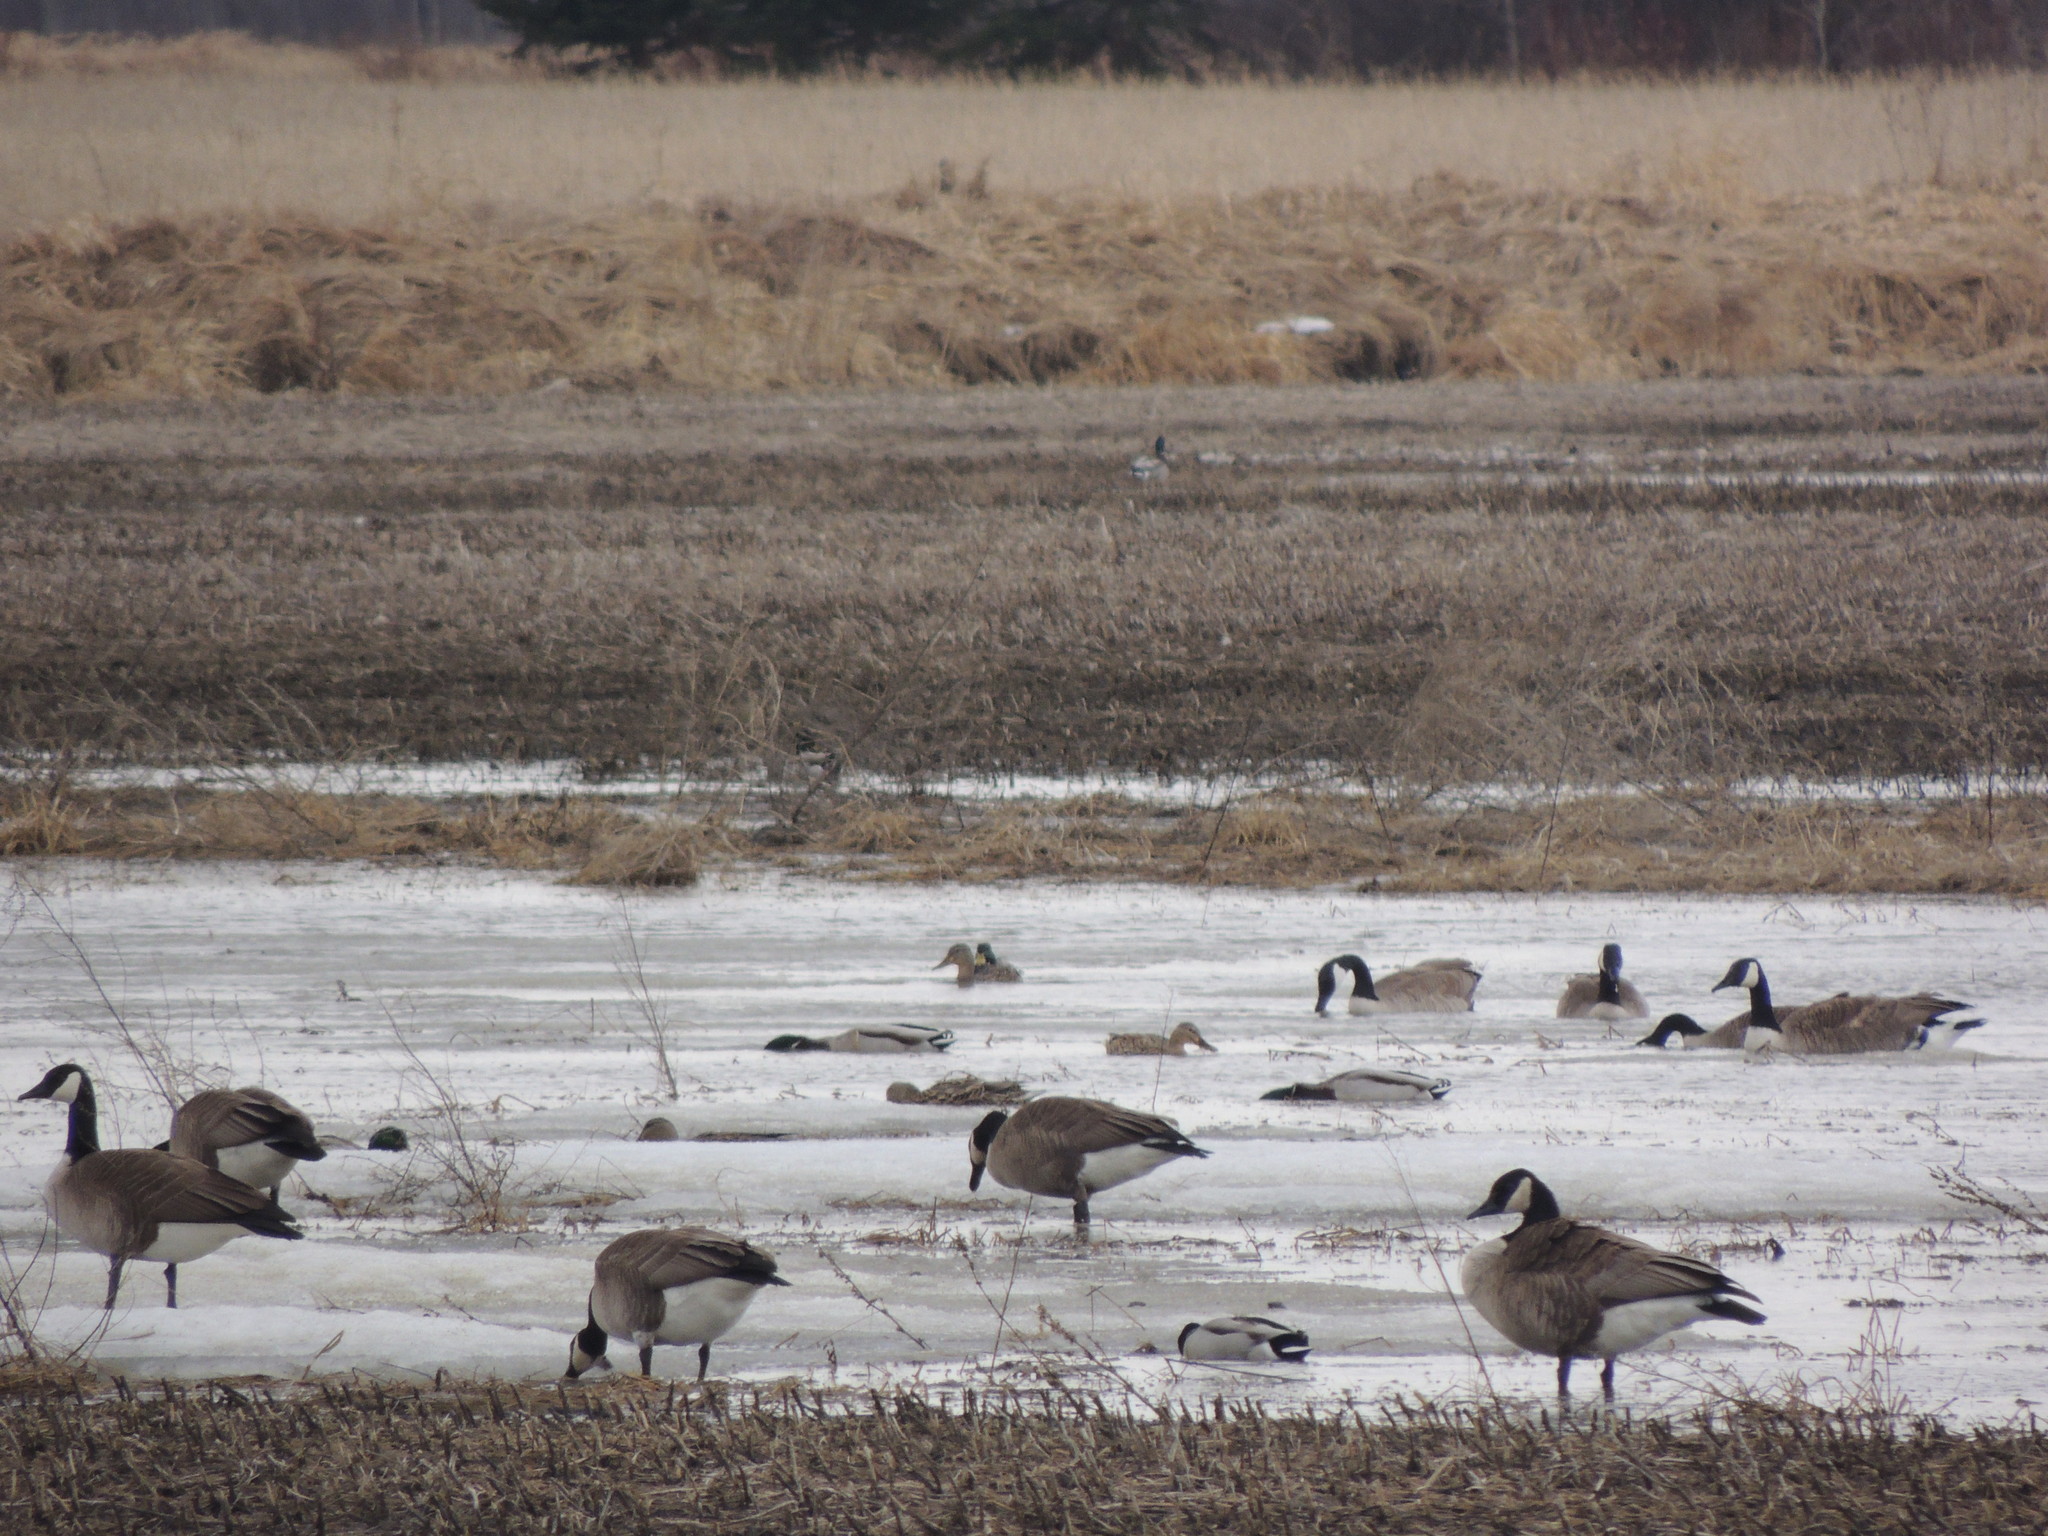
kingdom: Animalia
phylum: Chordata
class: Aves
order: Anseriformes
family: Anatidae
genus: Branta
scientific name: Branta canadensis
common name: Canada goose
